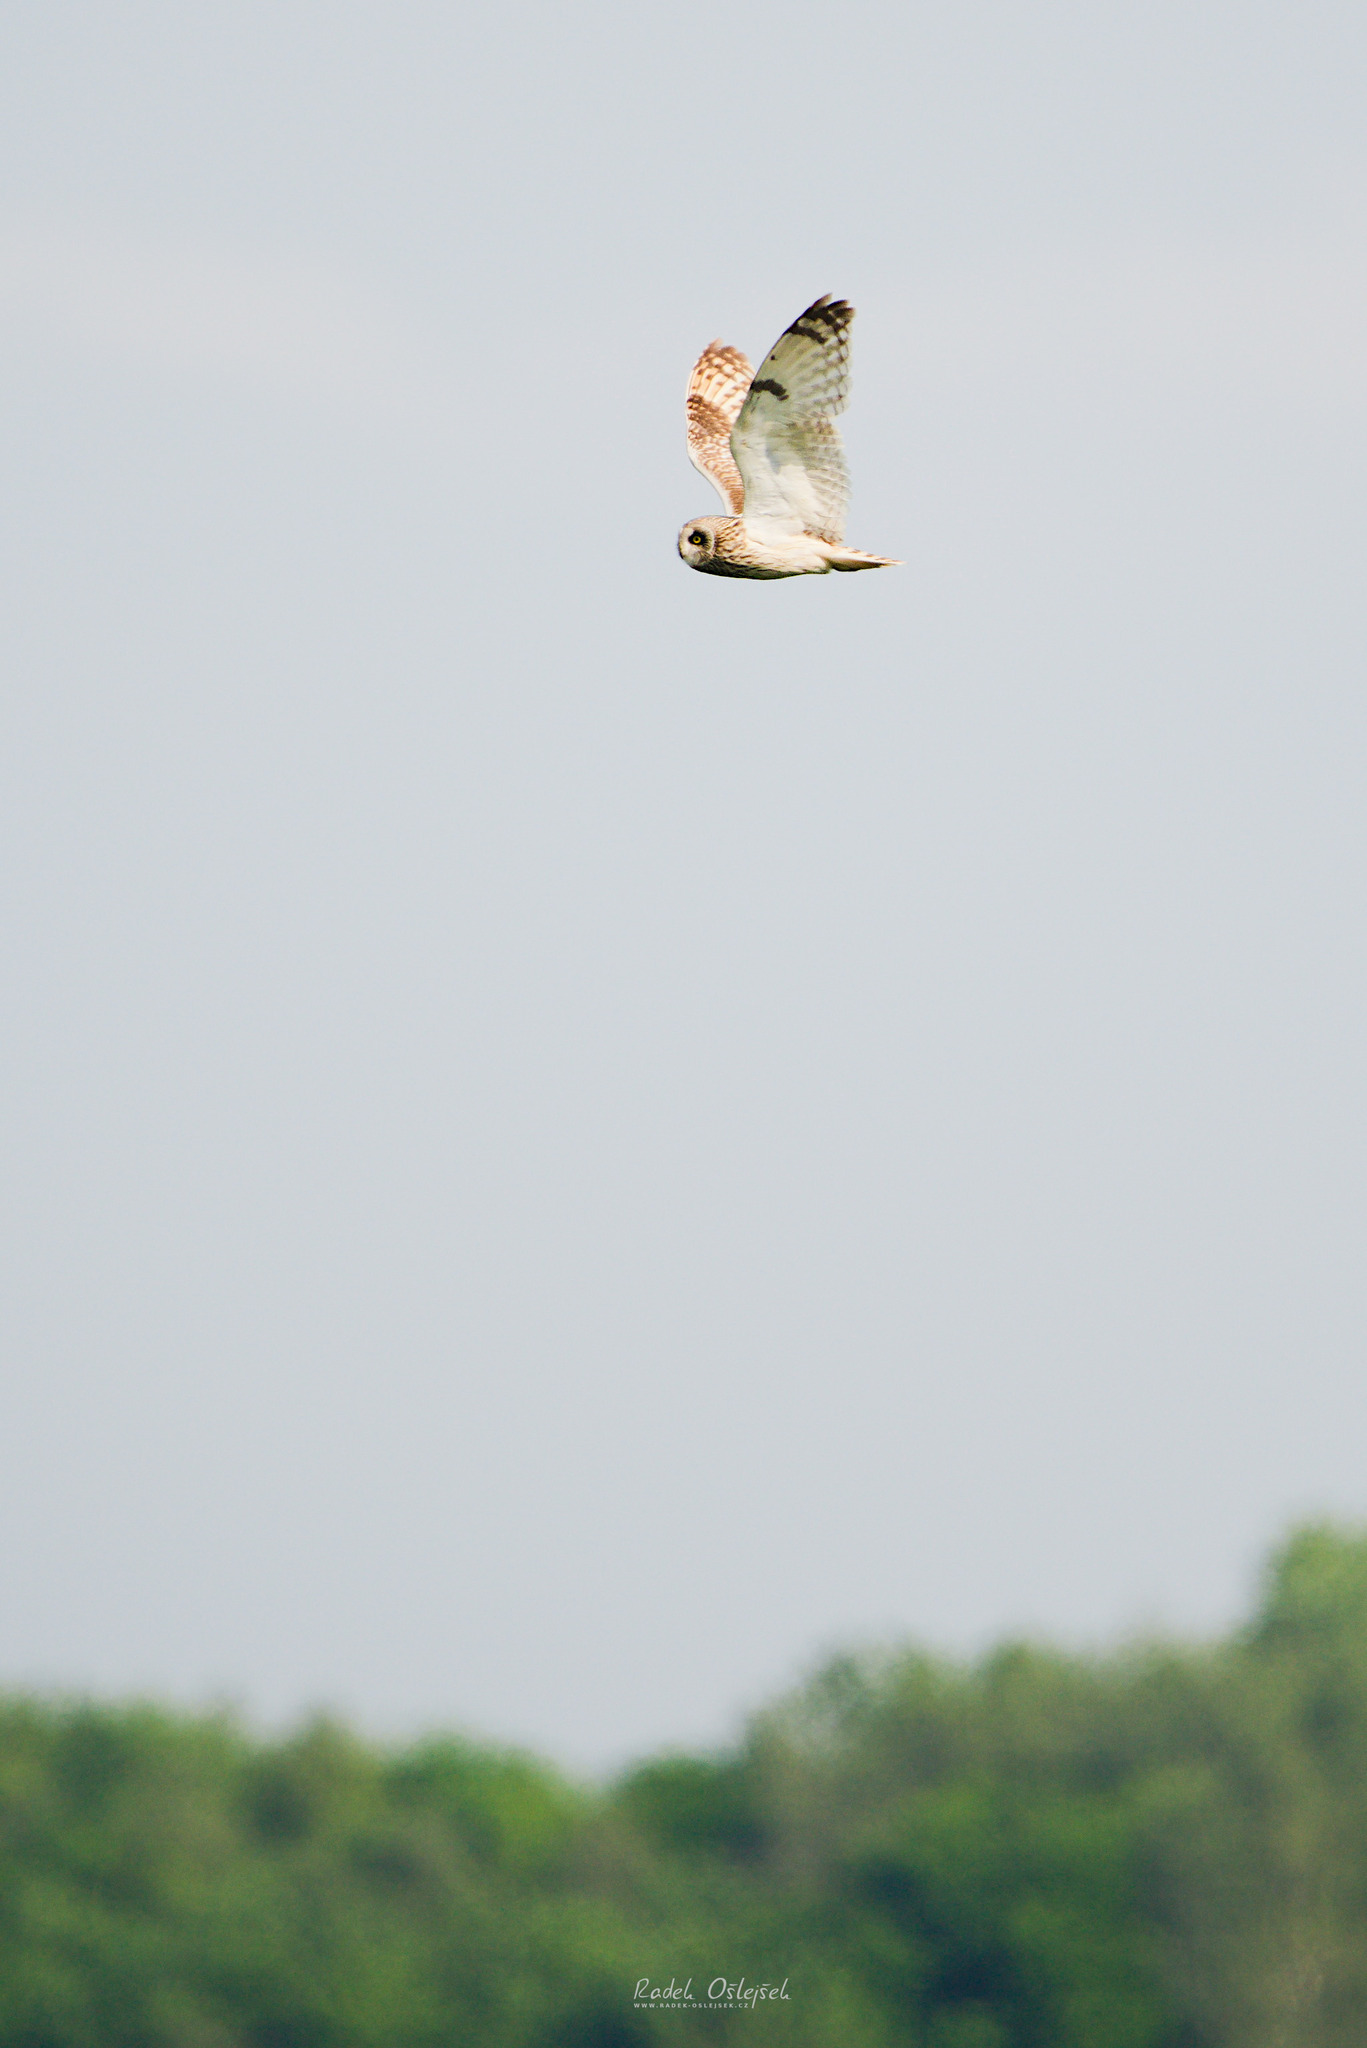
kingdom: Animalia
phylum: Chordata
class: Aves
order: Strigiformes
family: Strigidae
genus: Asio
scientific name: Asio flammeus
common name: Short-eared owl
